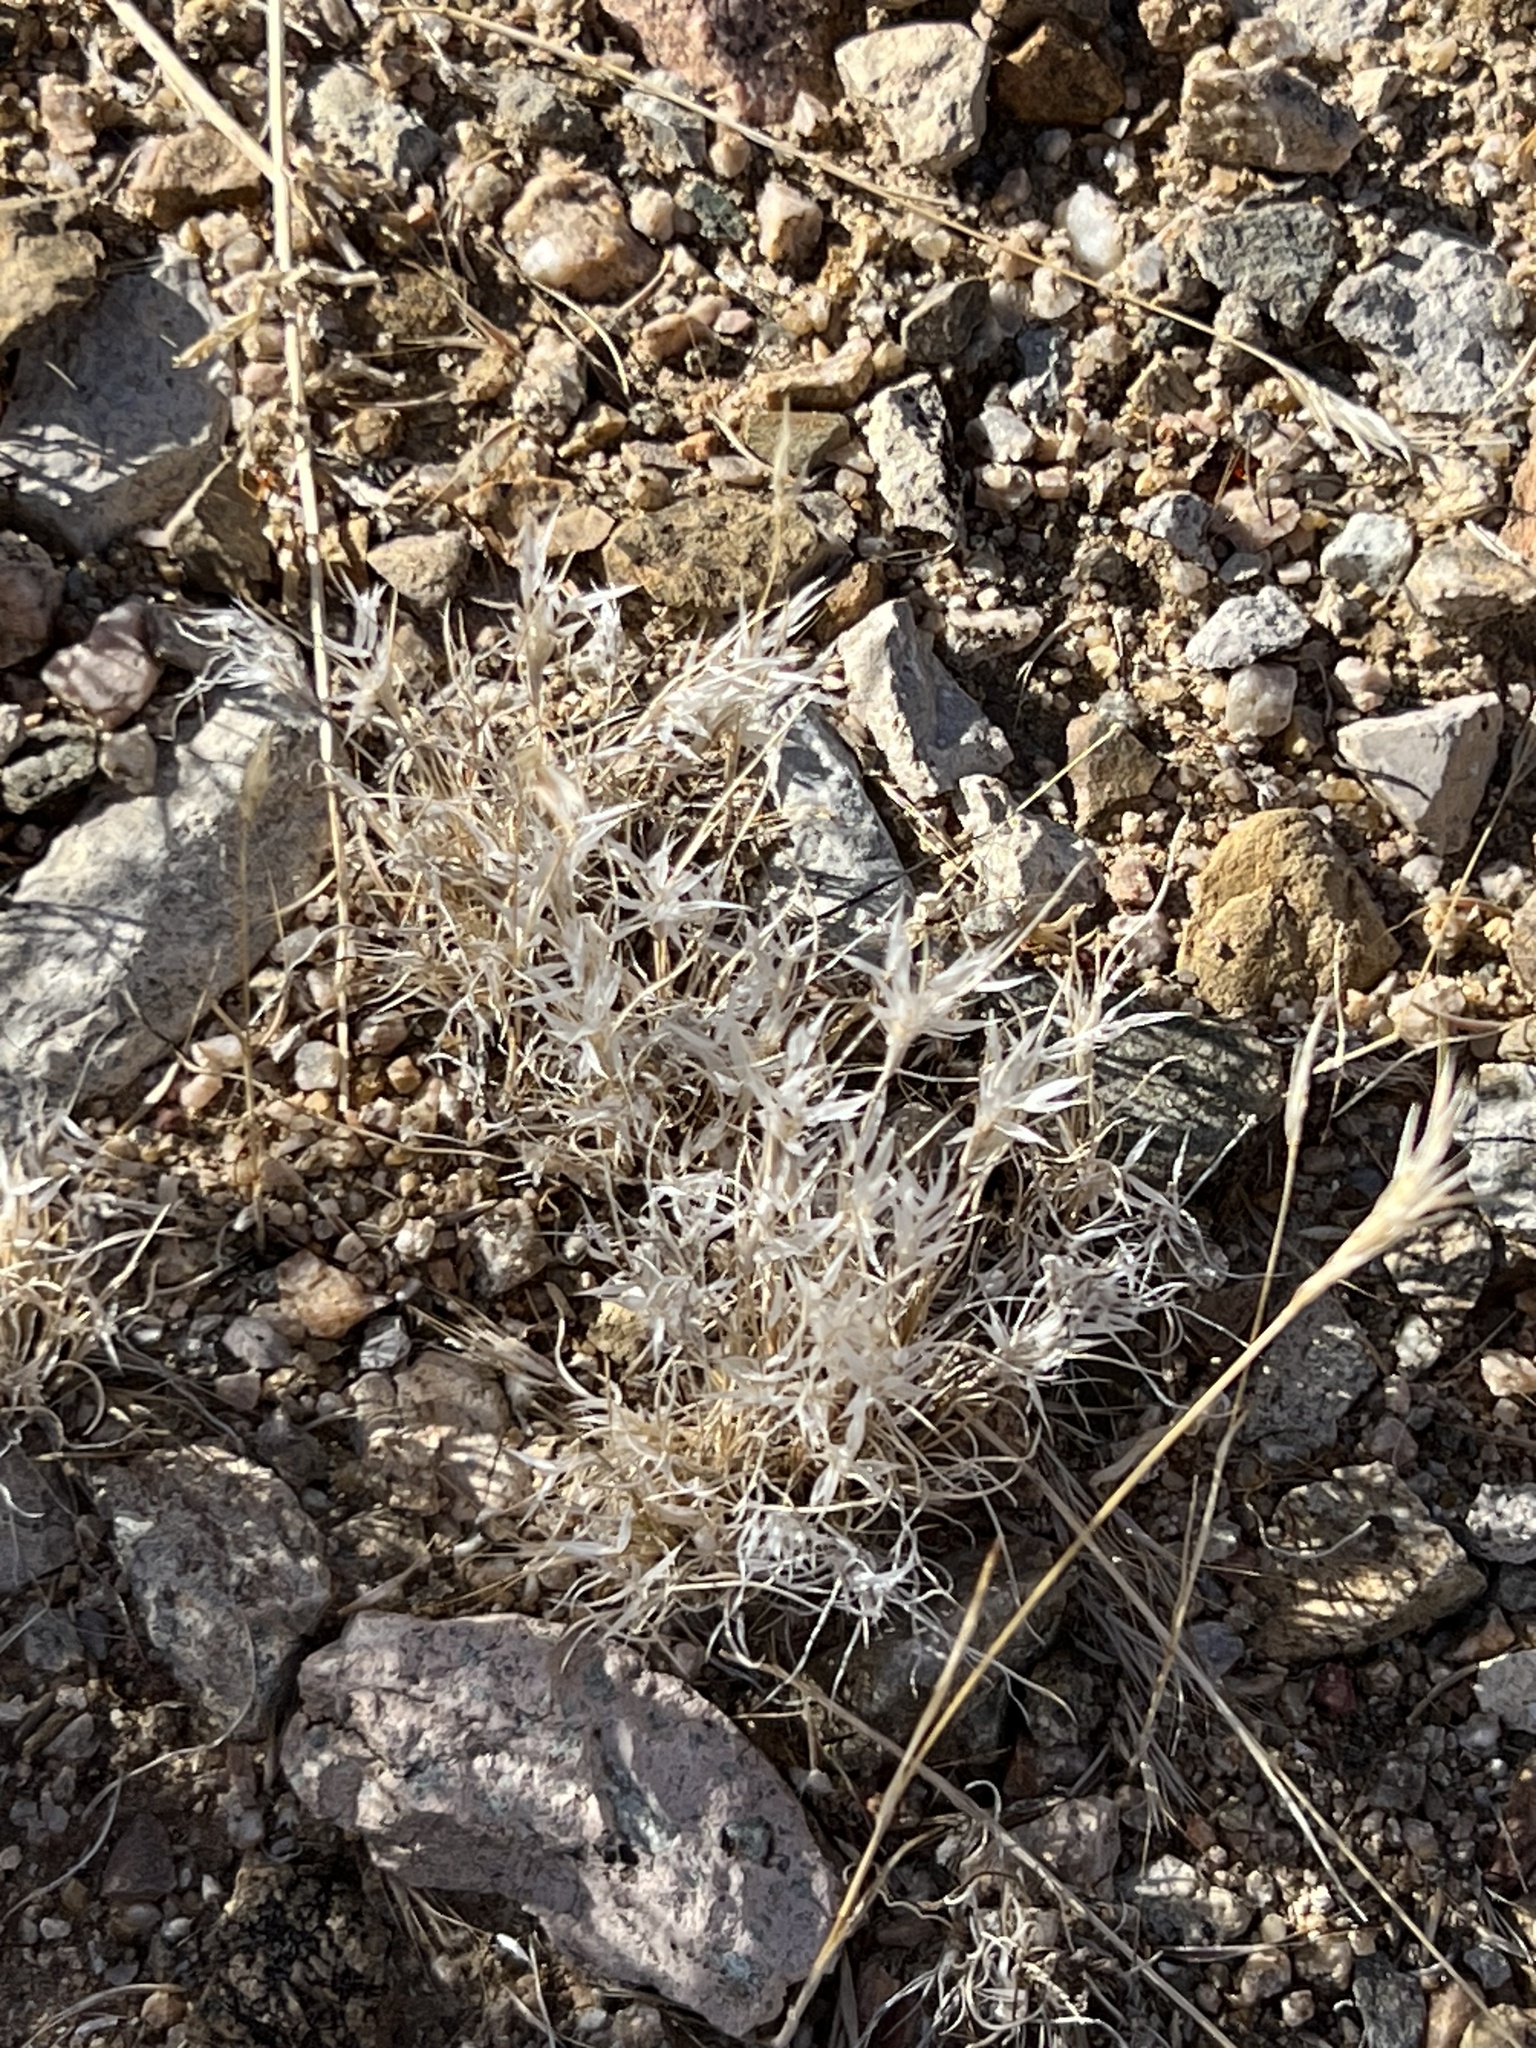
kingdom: Plantae
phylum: Tracheophyta
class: Liliopsida
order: Poales
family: Poaceae
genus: Dasyochloa
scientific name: Dasyochloa pulchella
